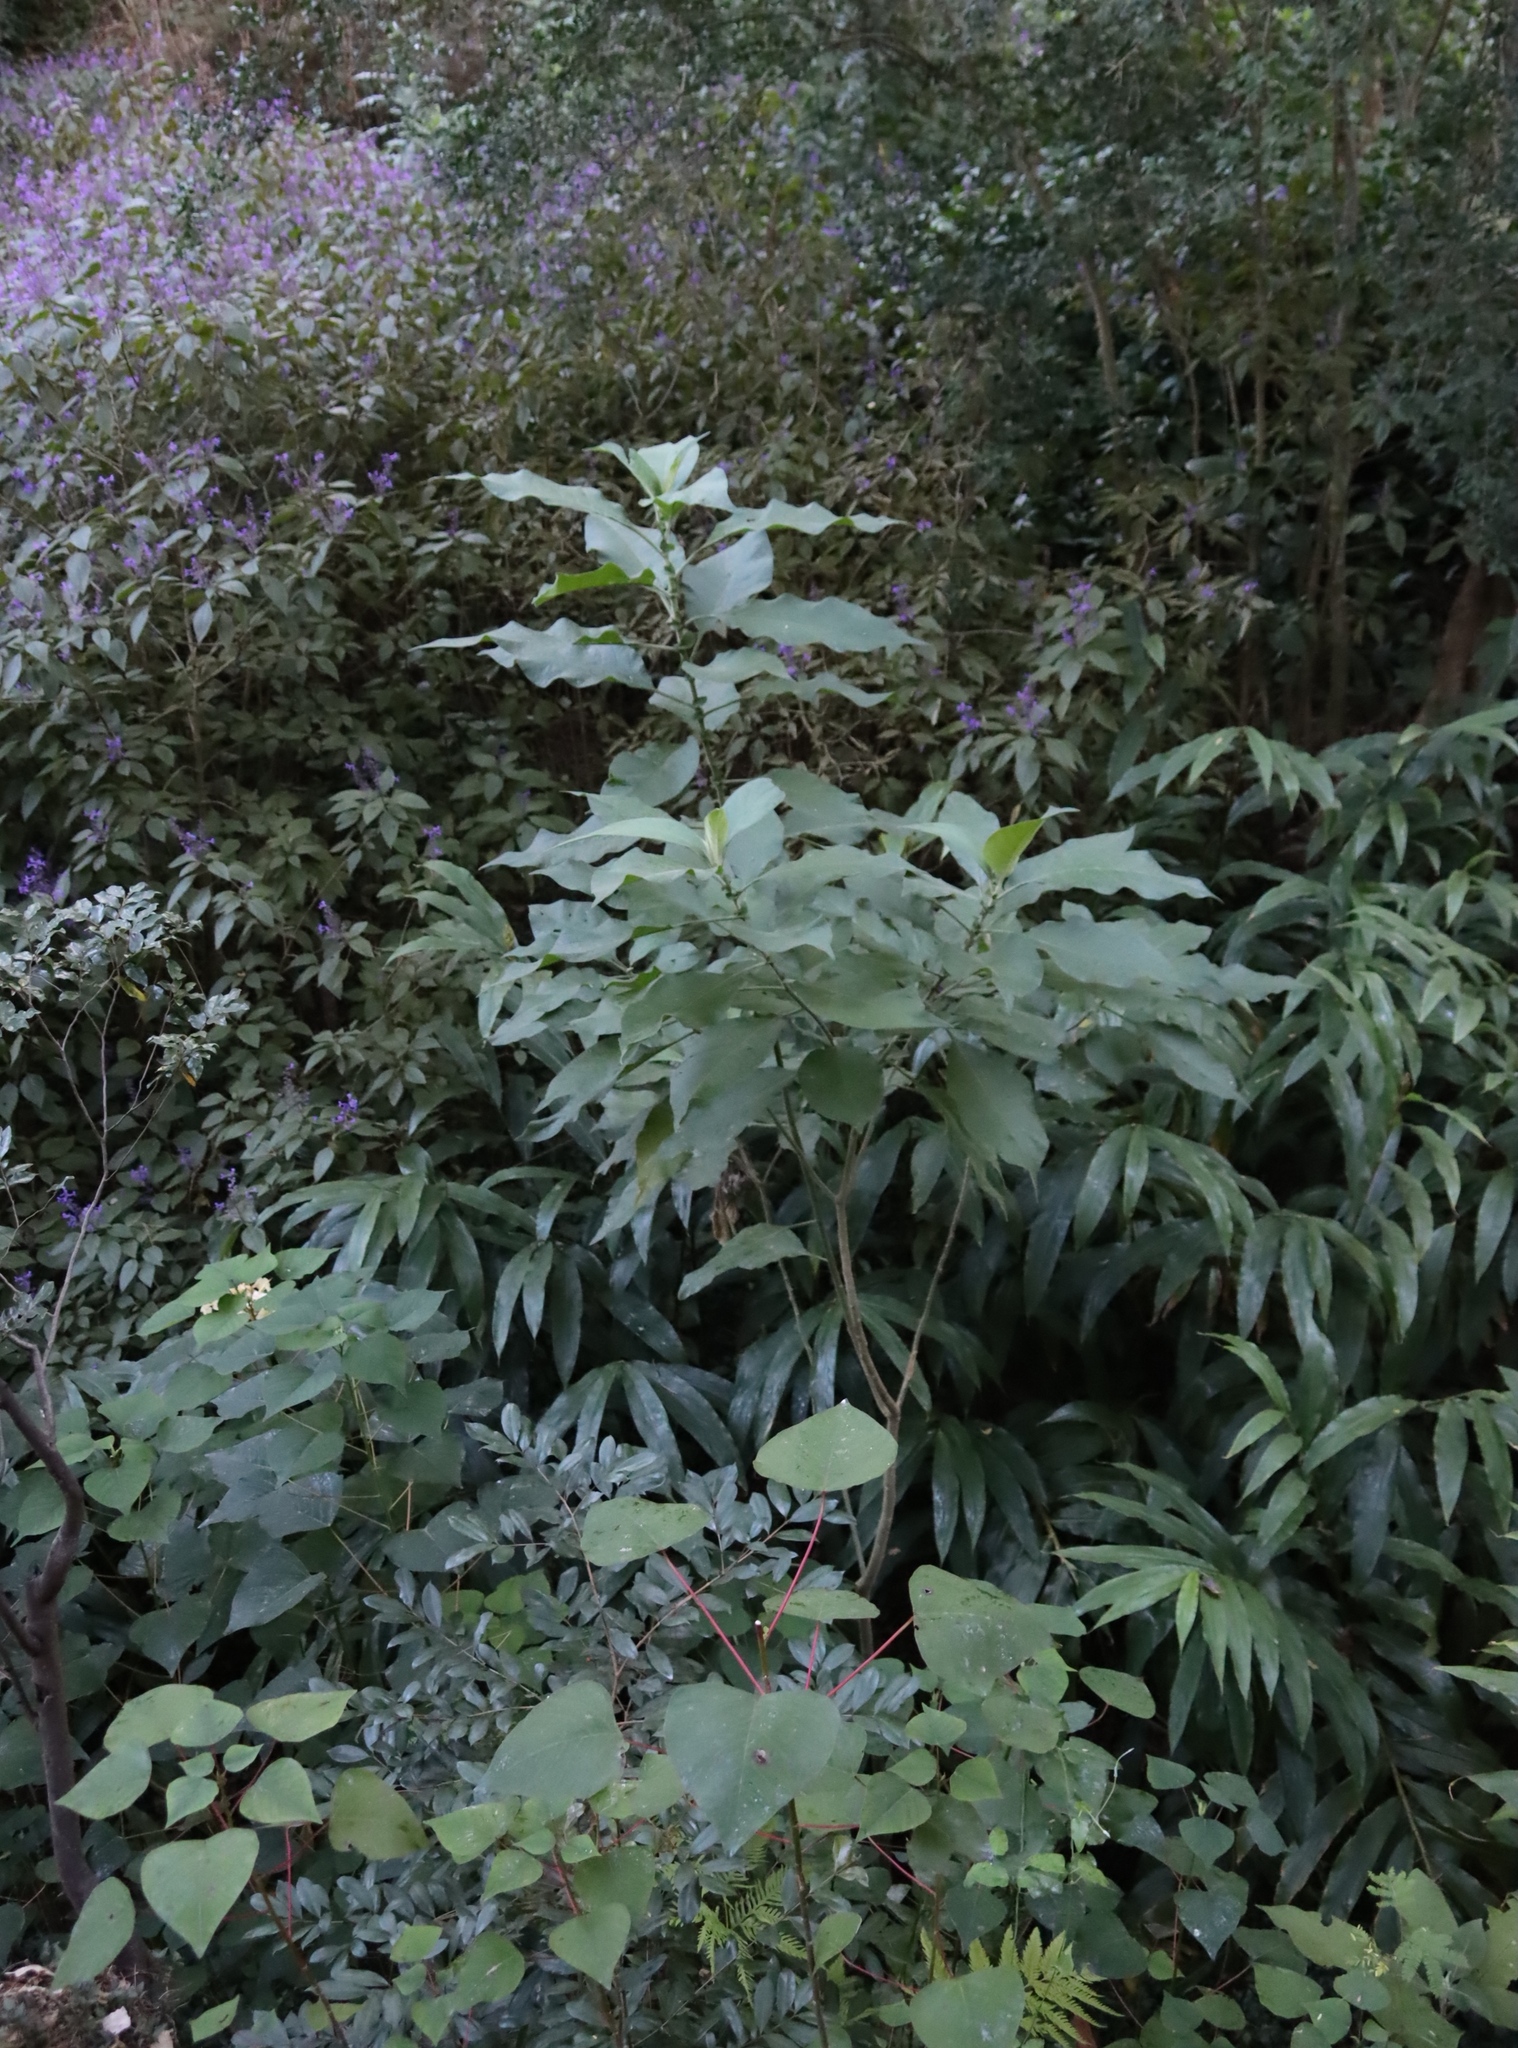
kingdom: Plantae
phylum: Tracheophyta
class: Magnoliopsida
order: Solanales
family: Solanaceae
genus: Solanum
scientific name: Solanum mauritianum
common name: Earleaf nightshade
